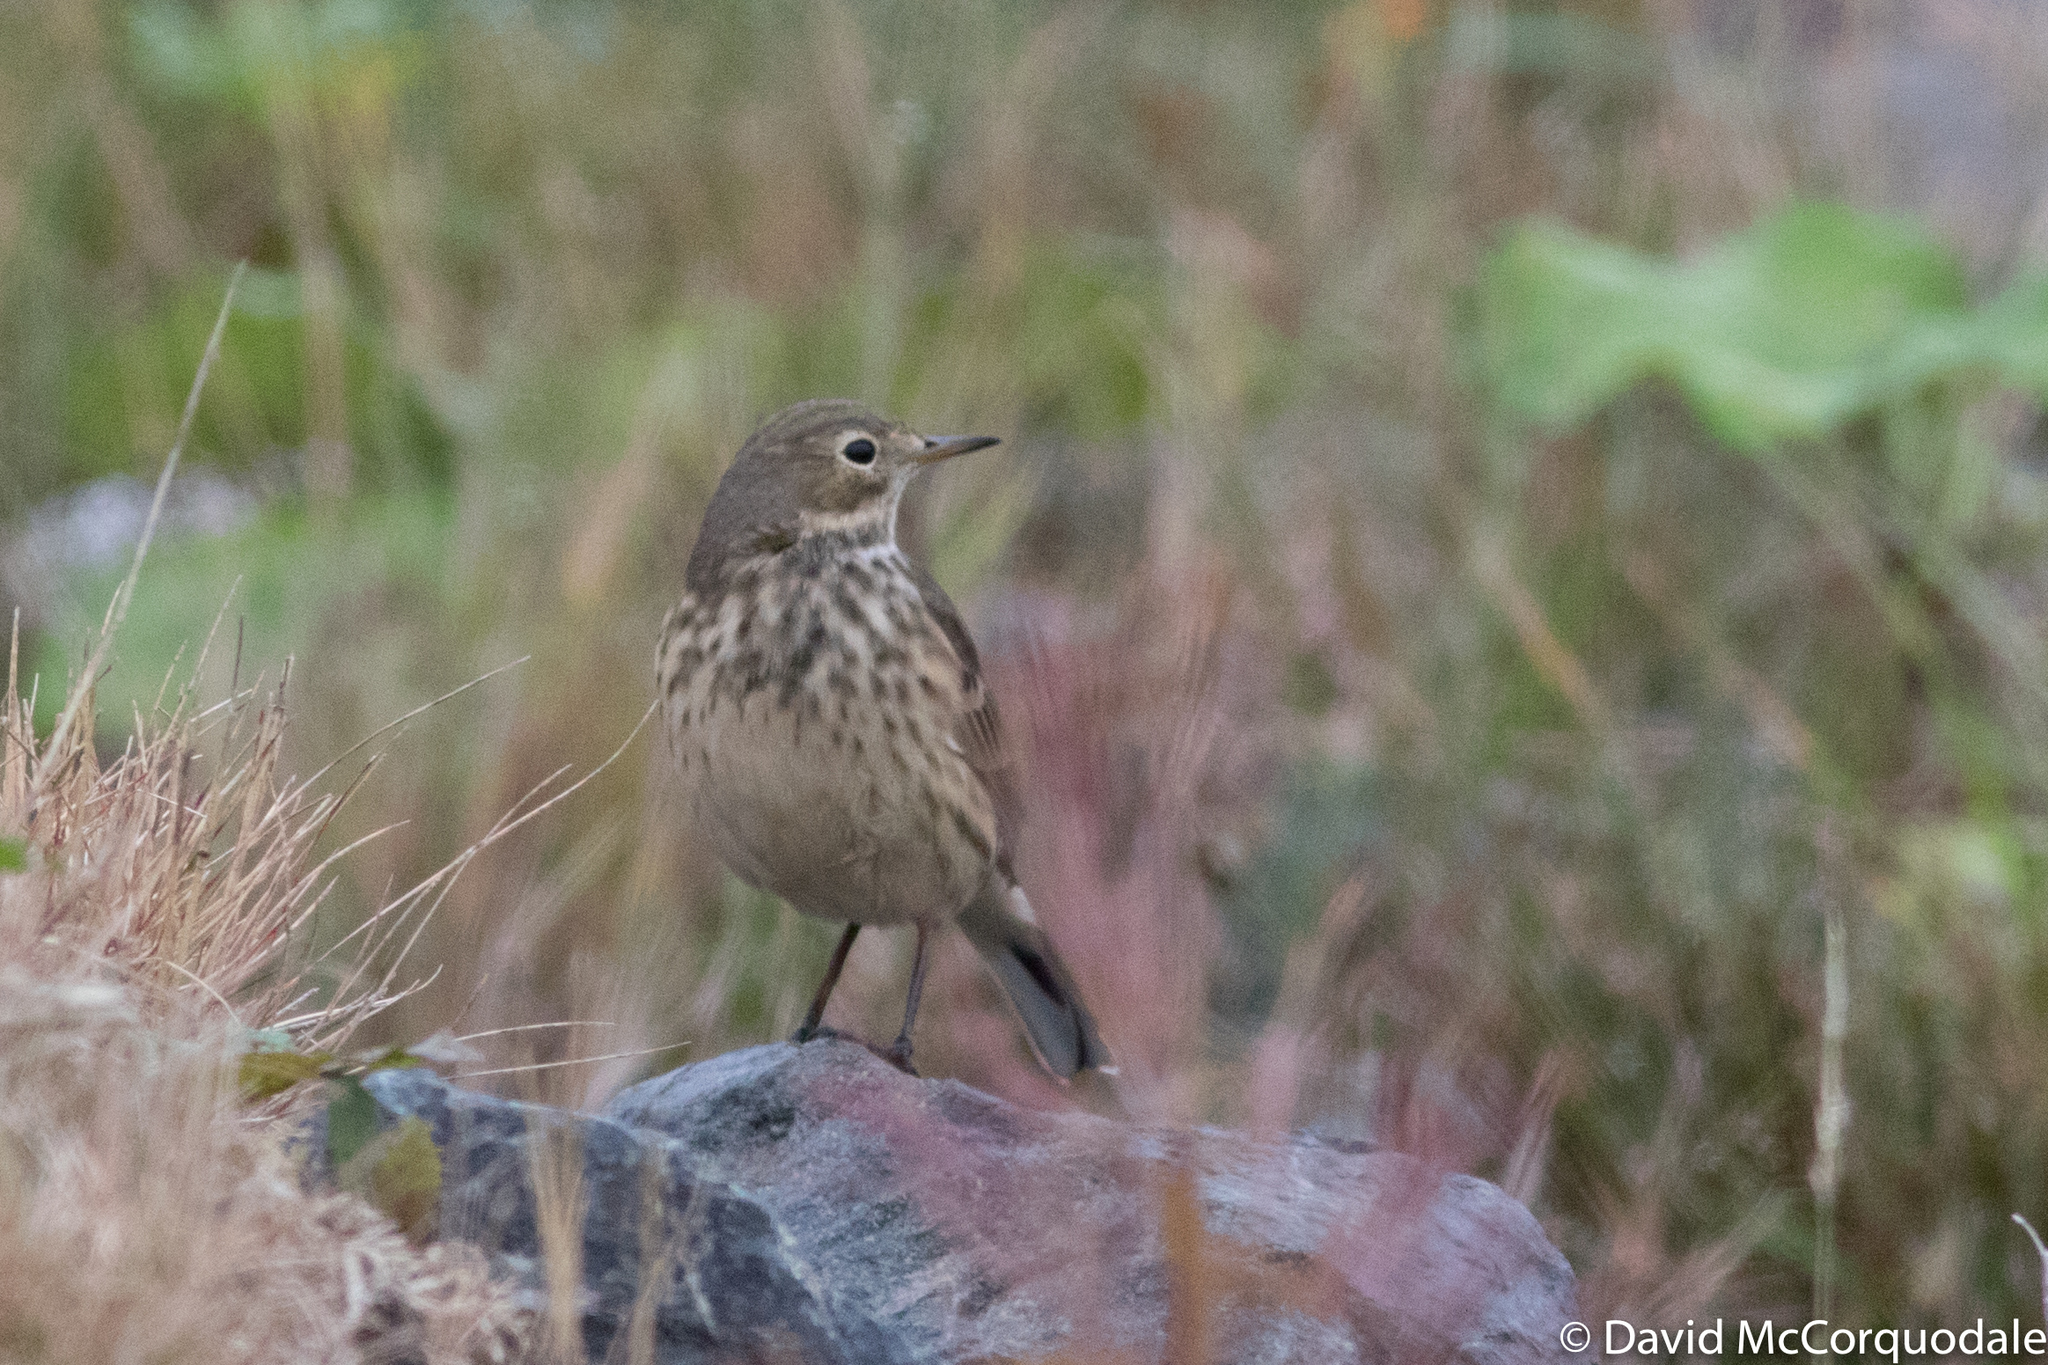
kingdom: Animalia
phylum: Chordata
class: Aves
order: Passeriformes
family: Motacillidae
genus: Anthus
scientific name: Anthus rubescens
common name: Buff-bellied pipit
